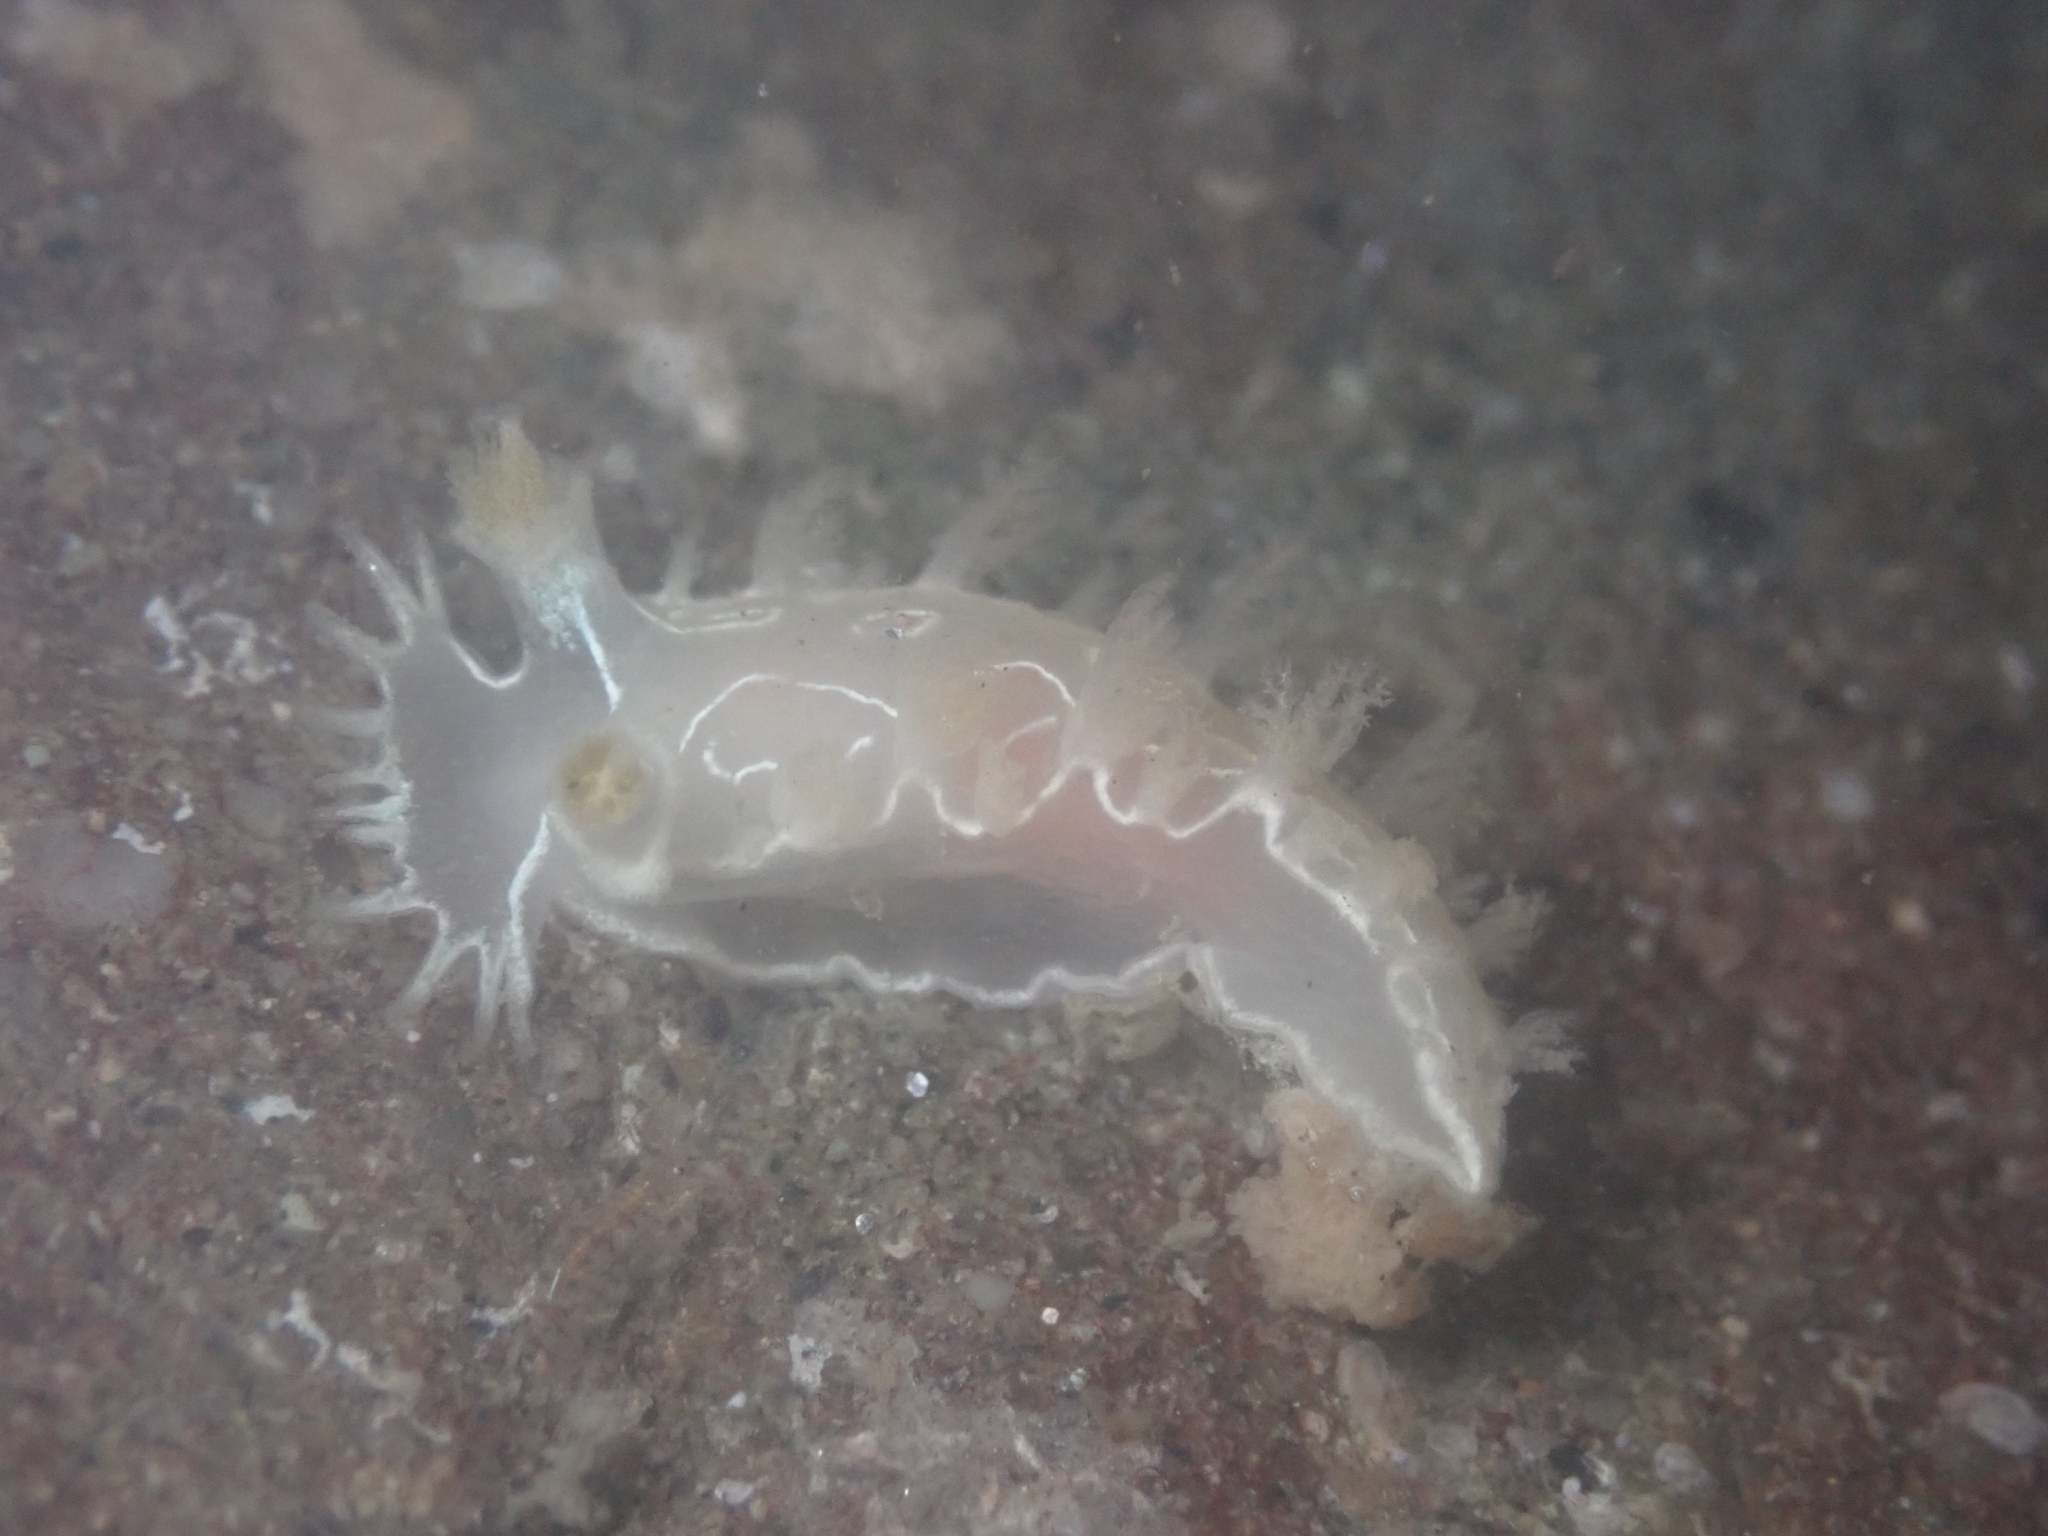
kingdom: Animalia
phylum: Mollusca
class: Gastropoda
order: Nudibranchia
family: Tritoniidae
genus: Tritonia
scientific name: Tritonia festiva
